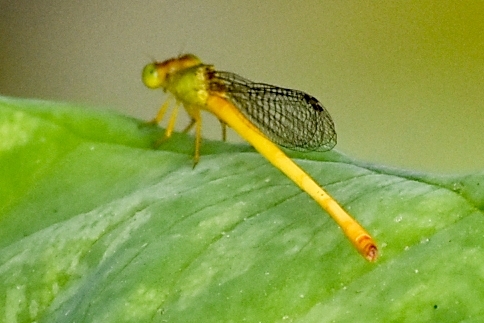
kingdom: Animalia
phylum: Arthropoda
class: Insecta
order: Odonata
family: Coenagrionidae
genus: Ceriagrion
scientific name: Ceriagrion coromandelianum
